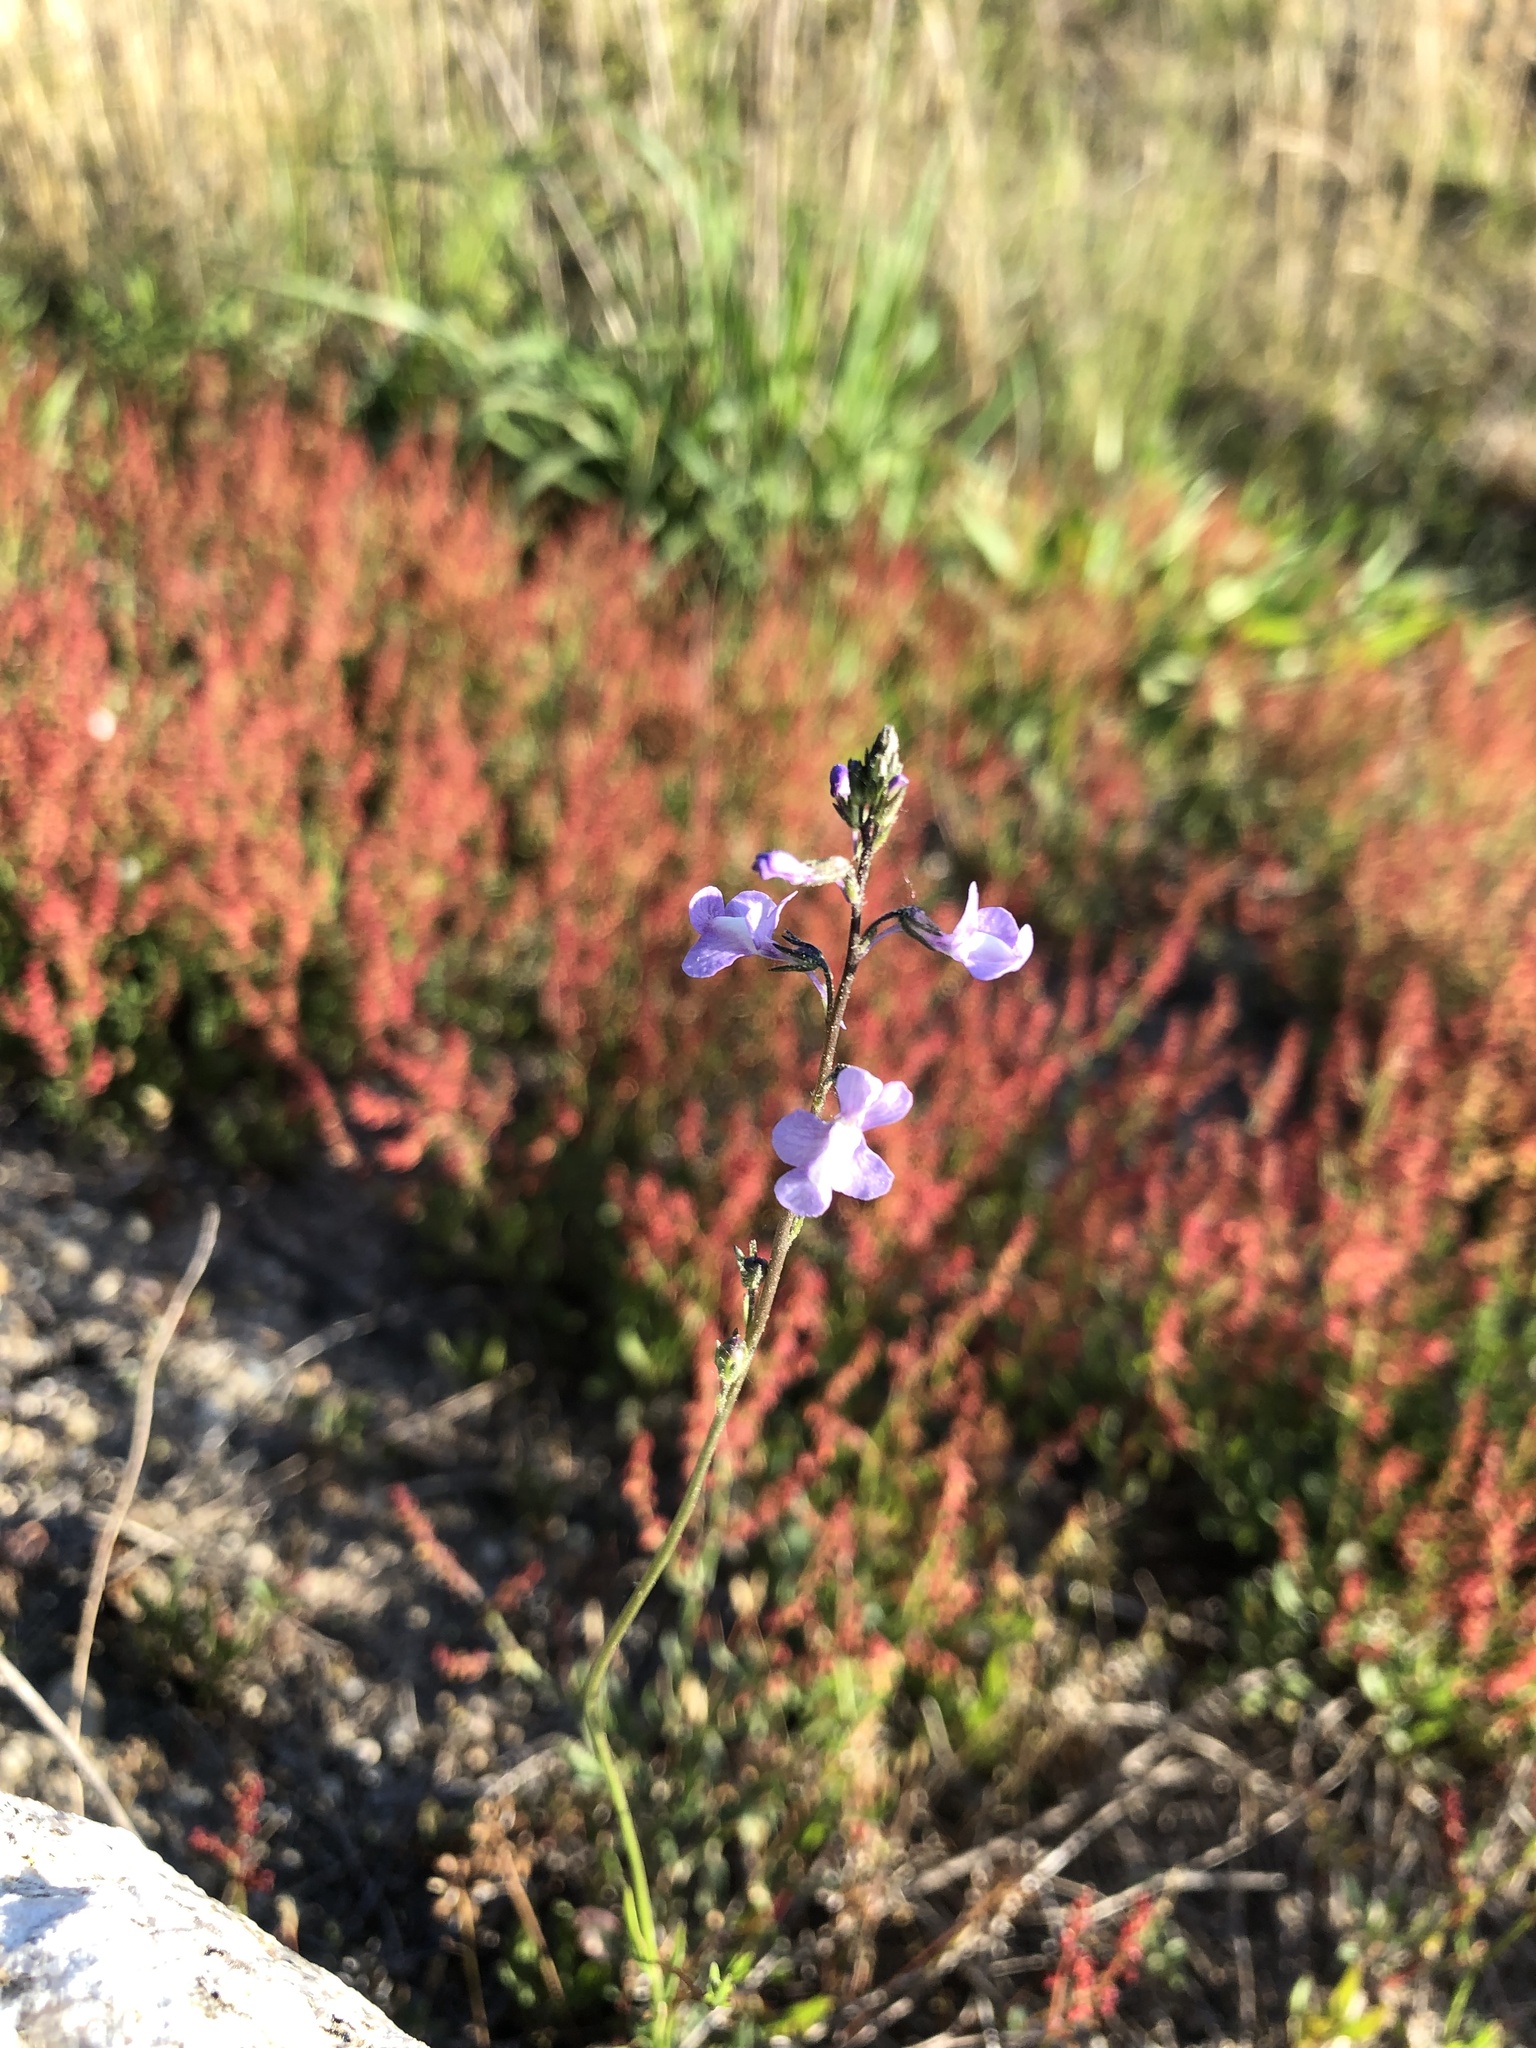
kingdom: Plantae
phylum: Tracheophyta
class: Magnoliopsida
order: Lamiales
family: Plantaginaceae
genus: Nuttallanthus
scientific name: Nuttallanthus canadensis
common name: Blue toadflax
